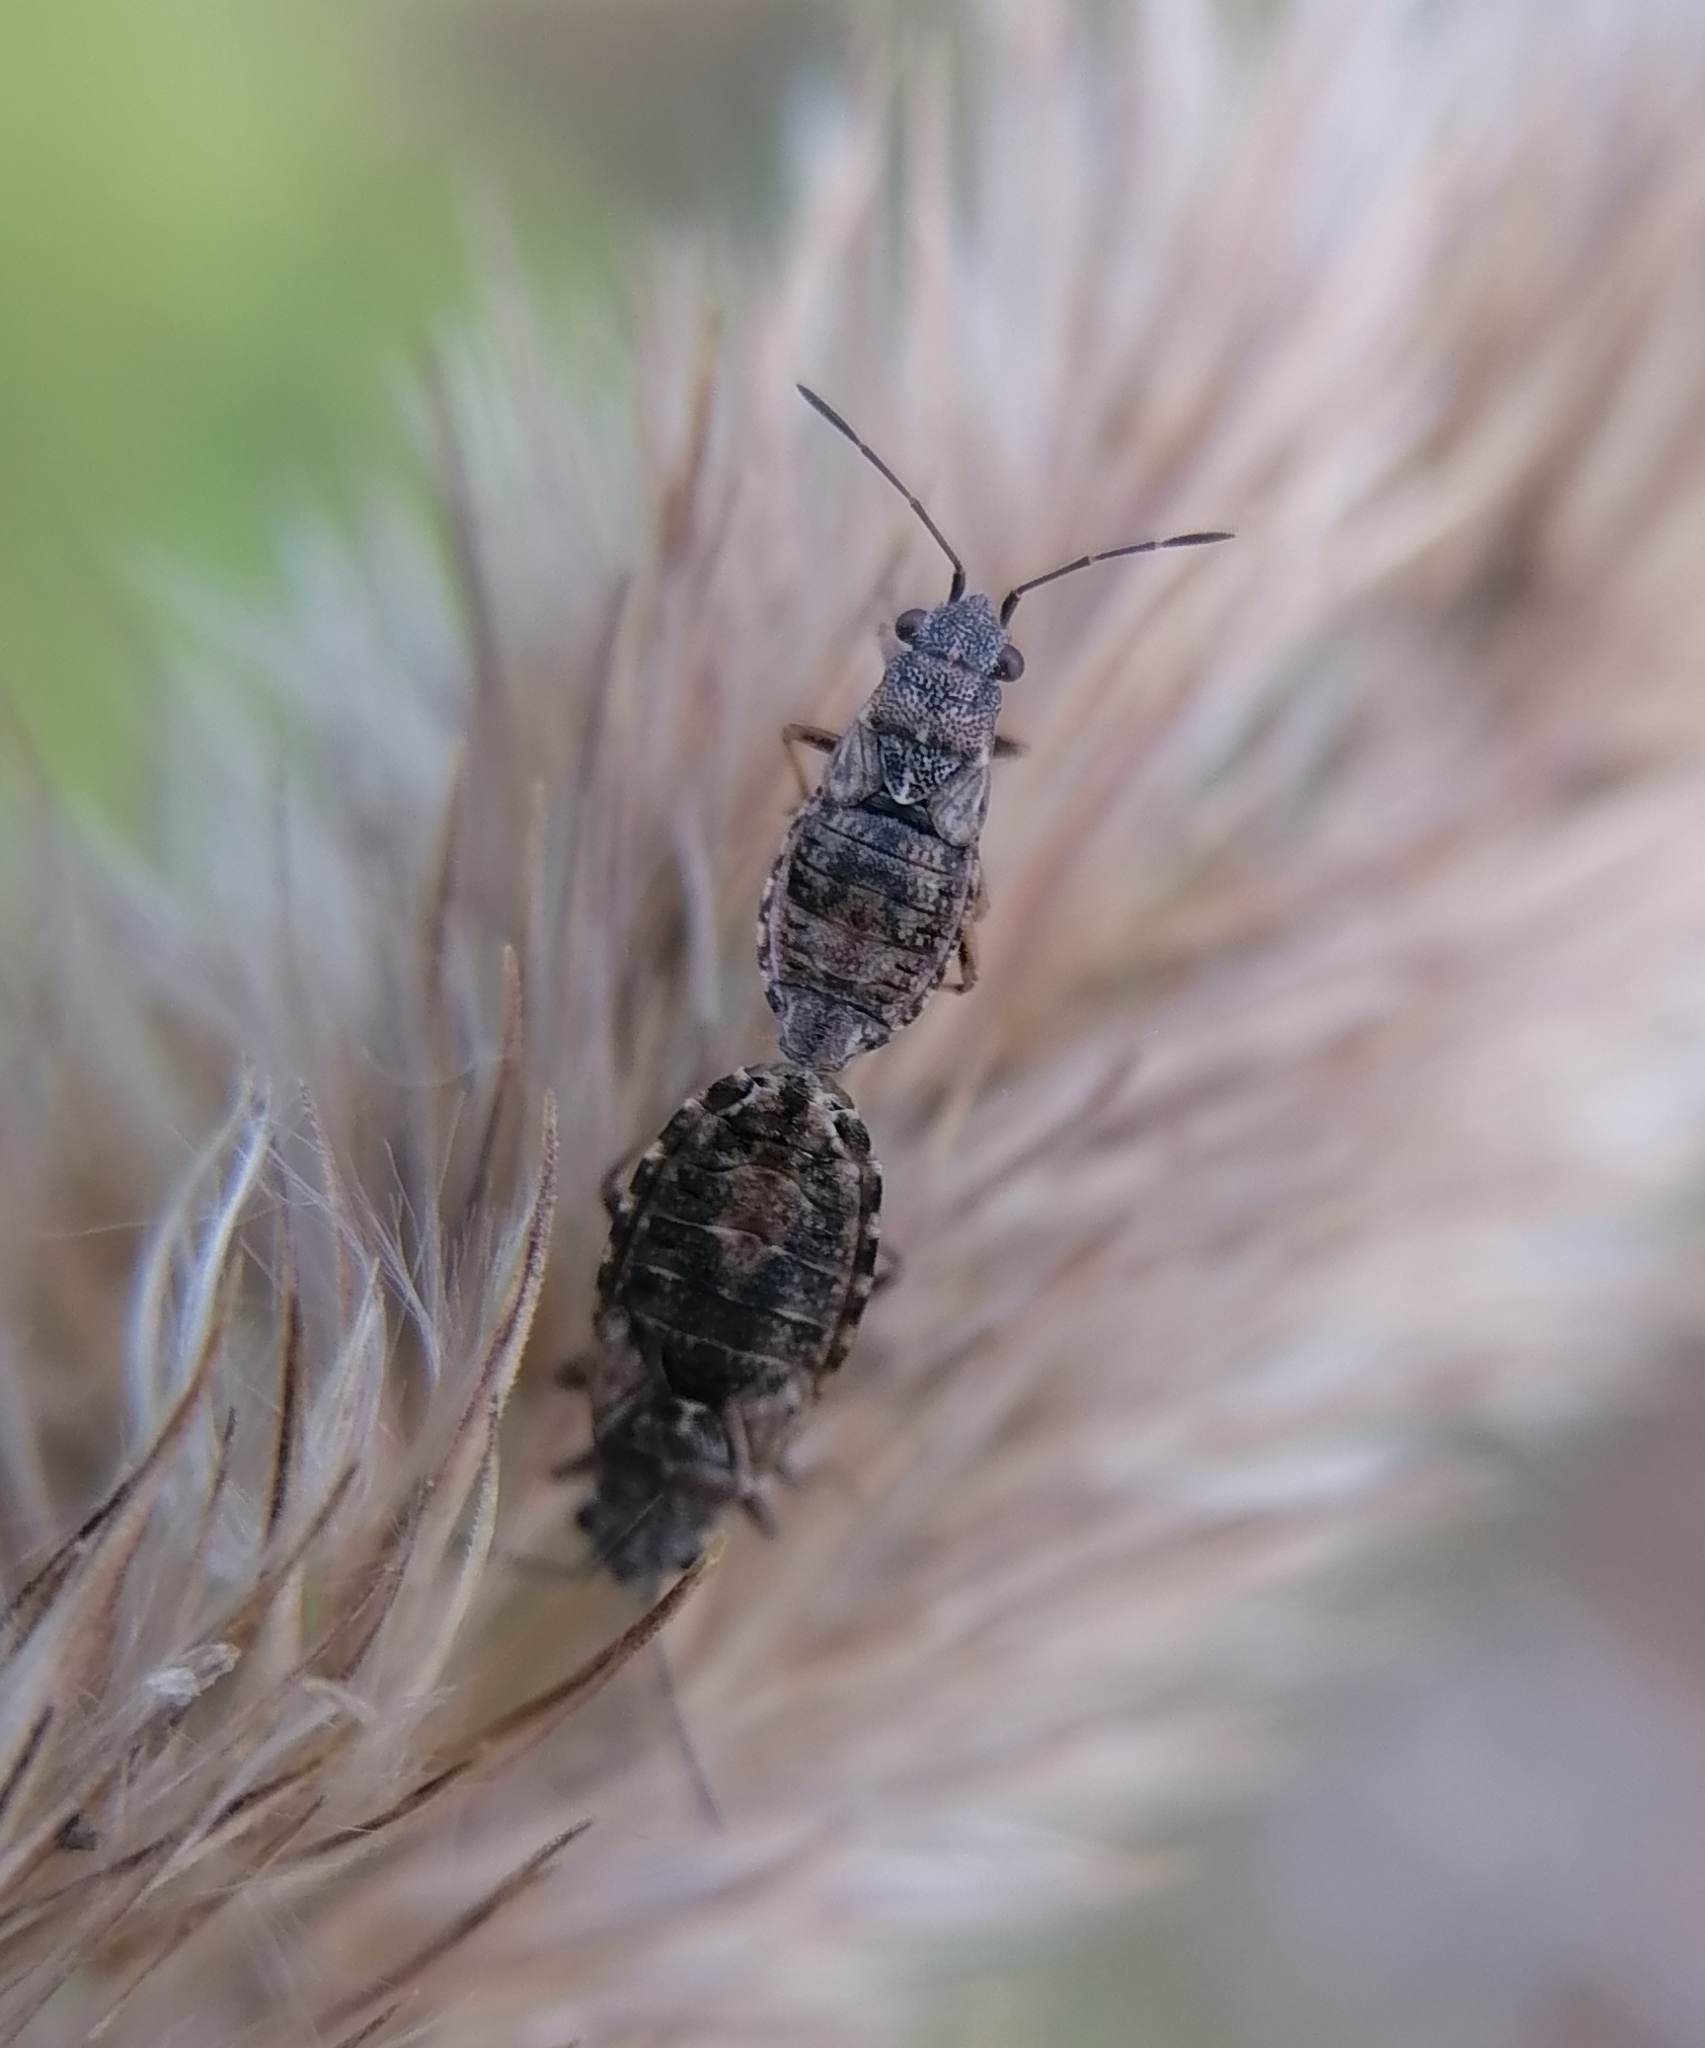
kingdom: Animalia
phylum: Arthropoda
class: Insecta
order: Hemiptera
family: Lygaeidae
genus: Nithecus
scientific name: Nithecus jacobaeae
